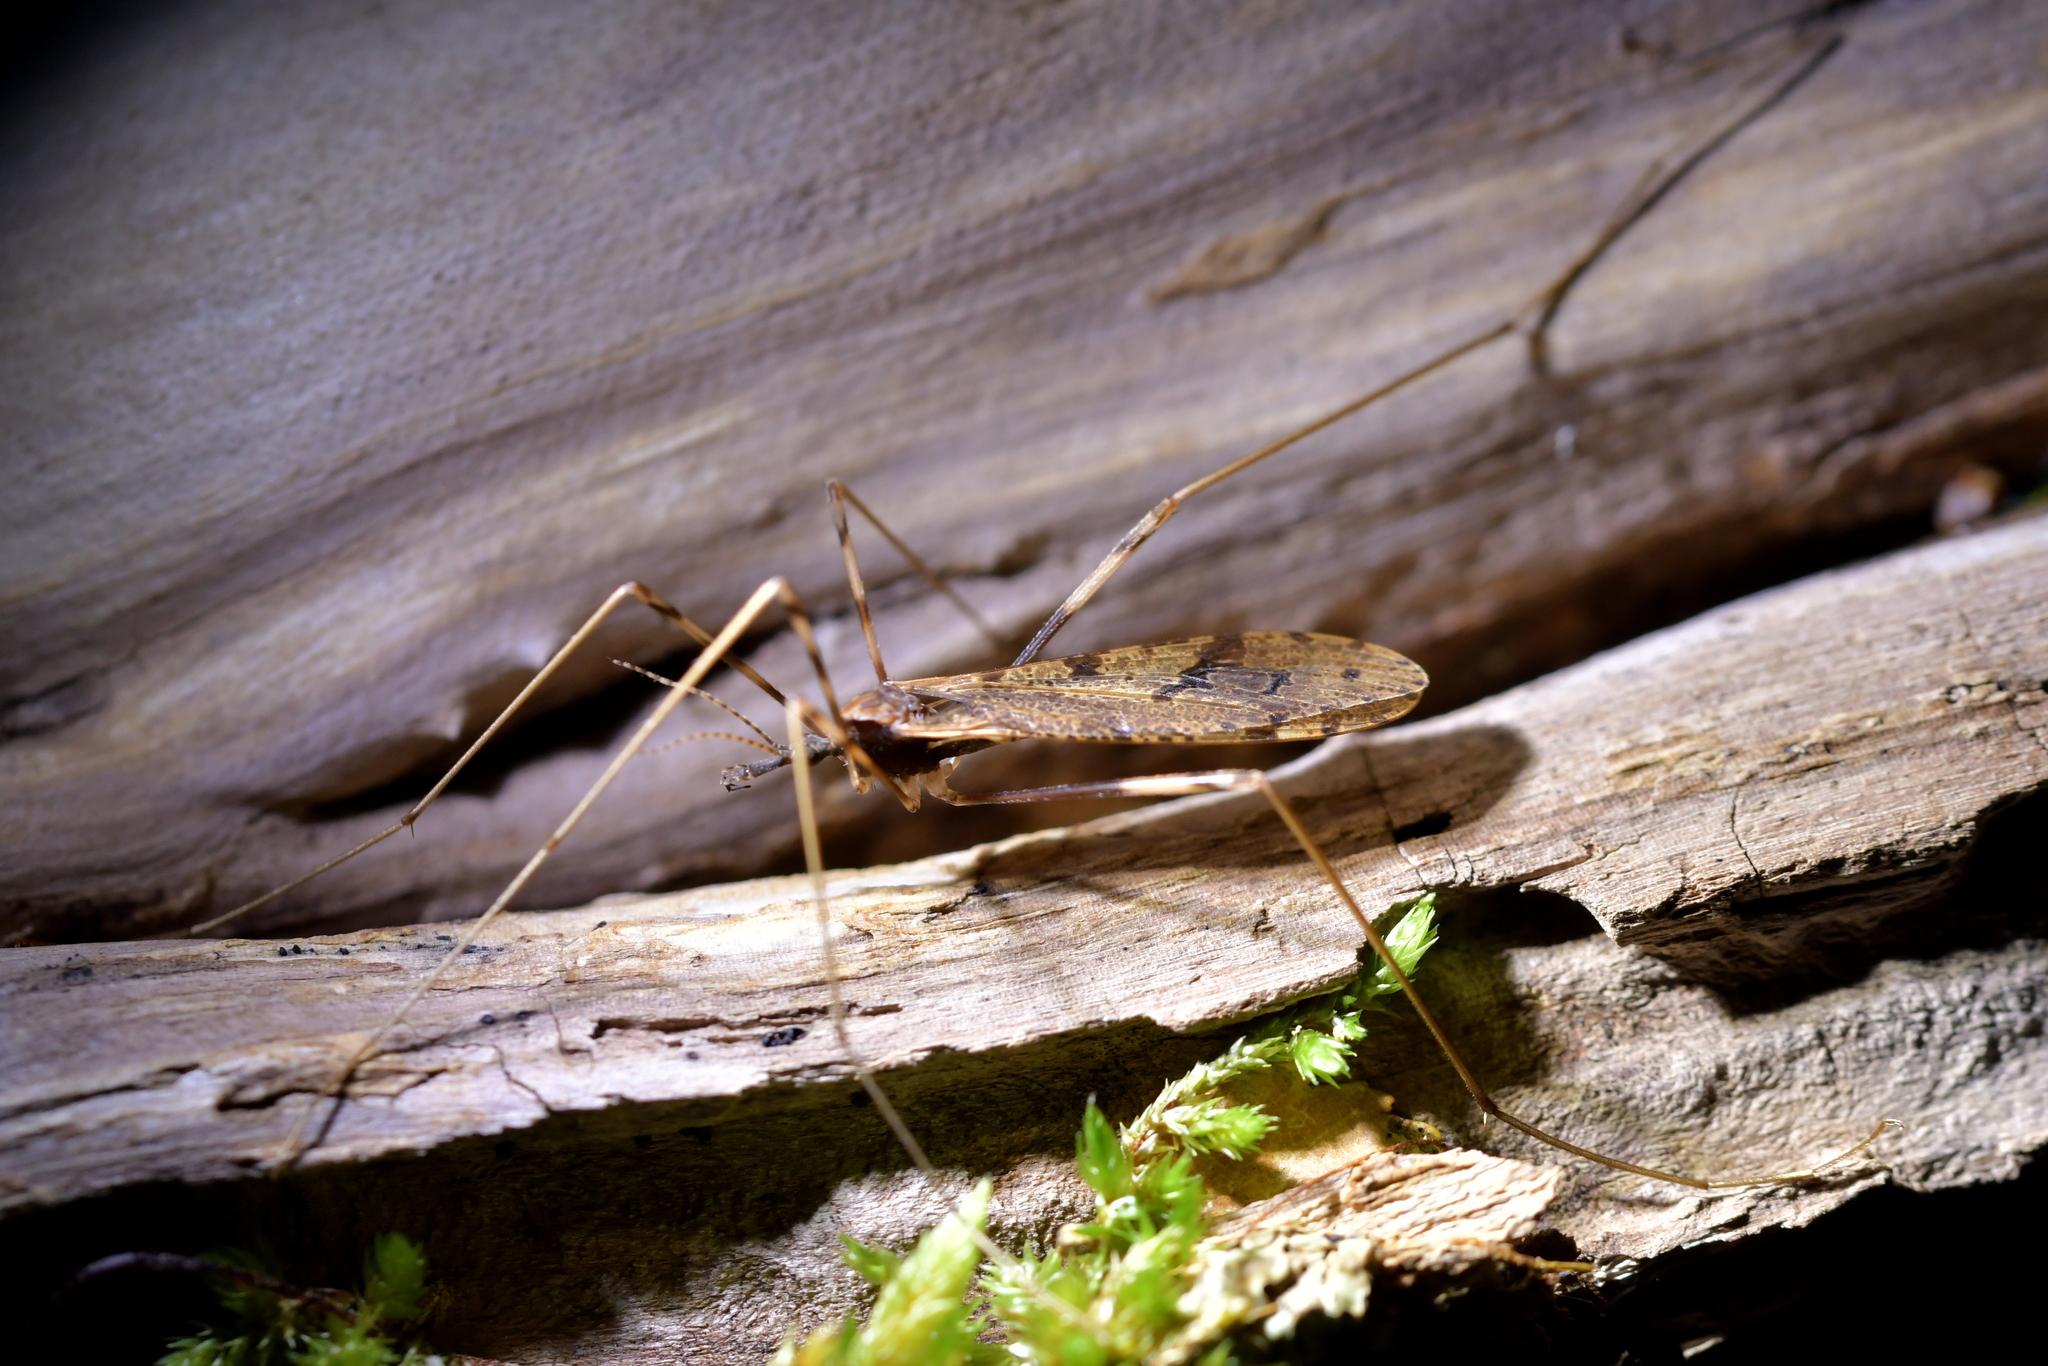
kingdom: Animalia
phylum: Arthropoda
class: Insecta
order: Diptera
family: Limoniidae
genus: Rhamphophila
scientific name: Rhamphophila sinistra
